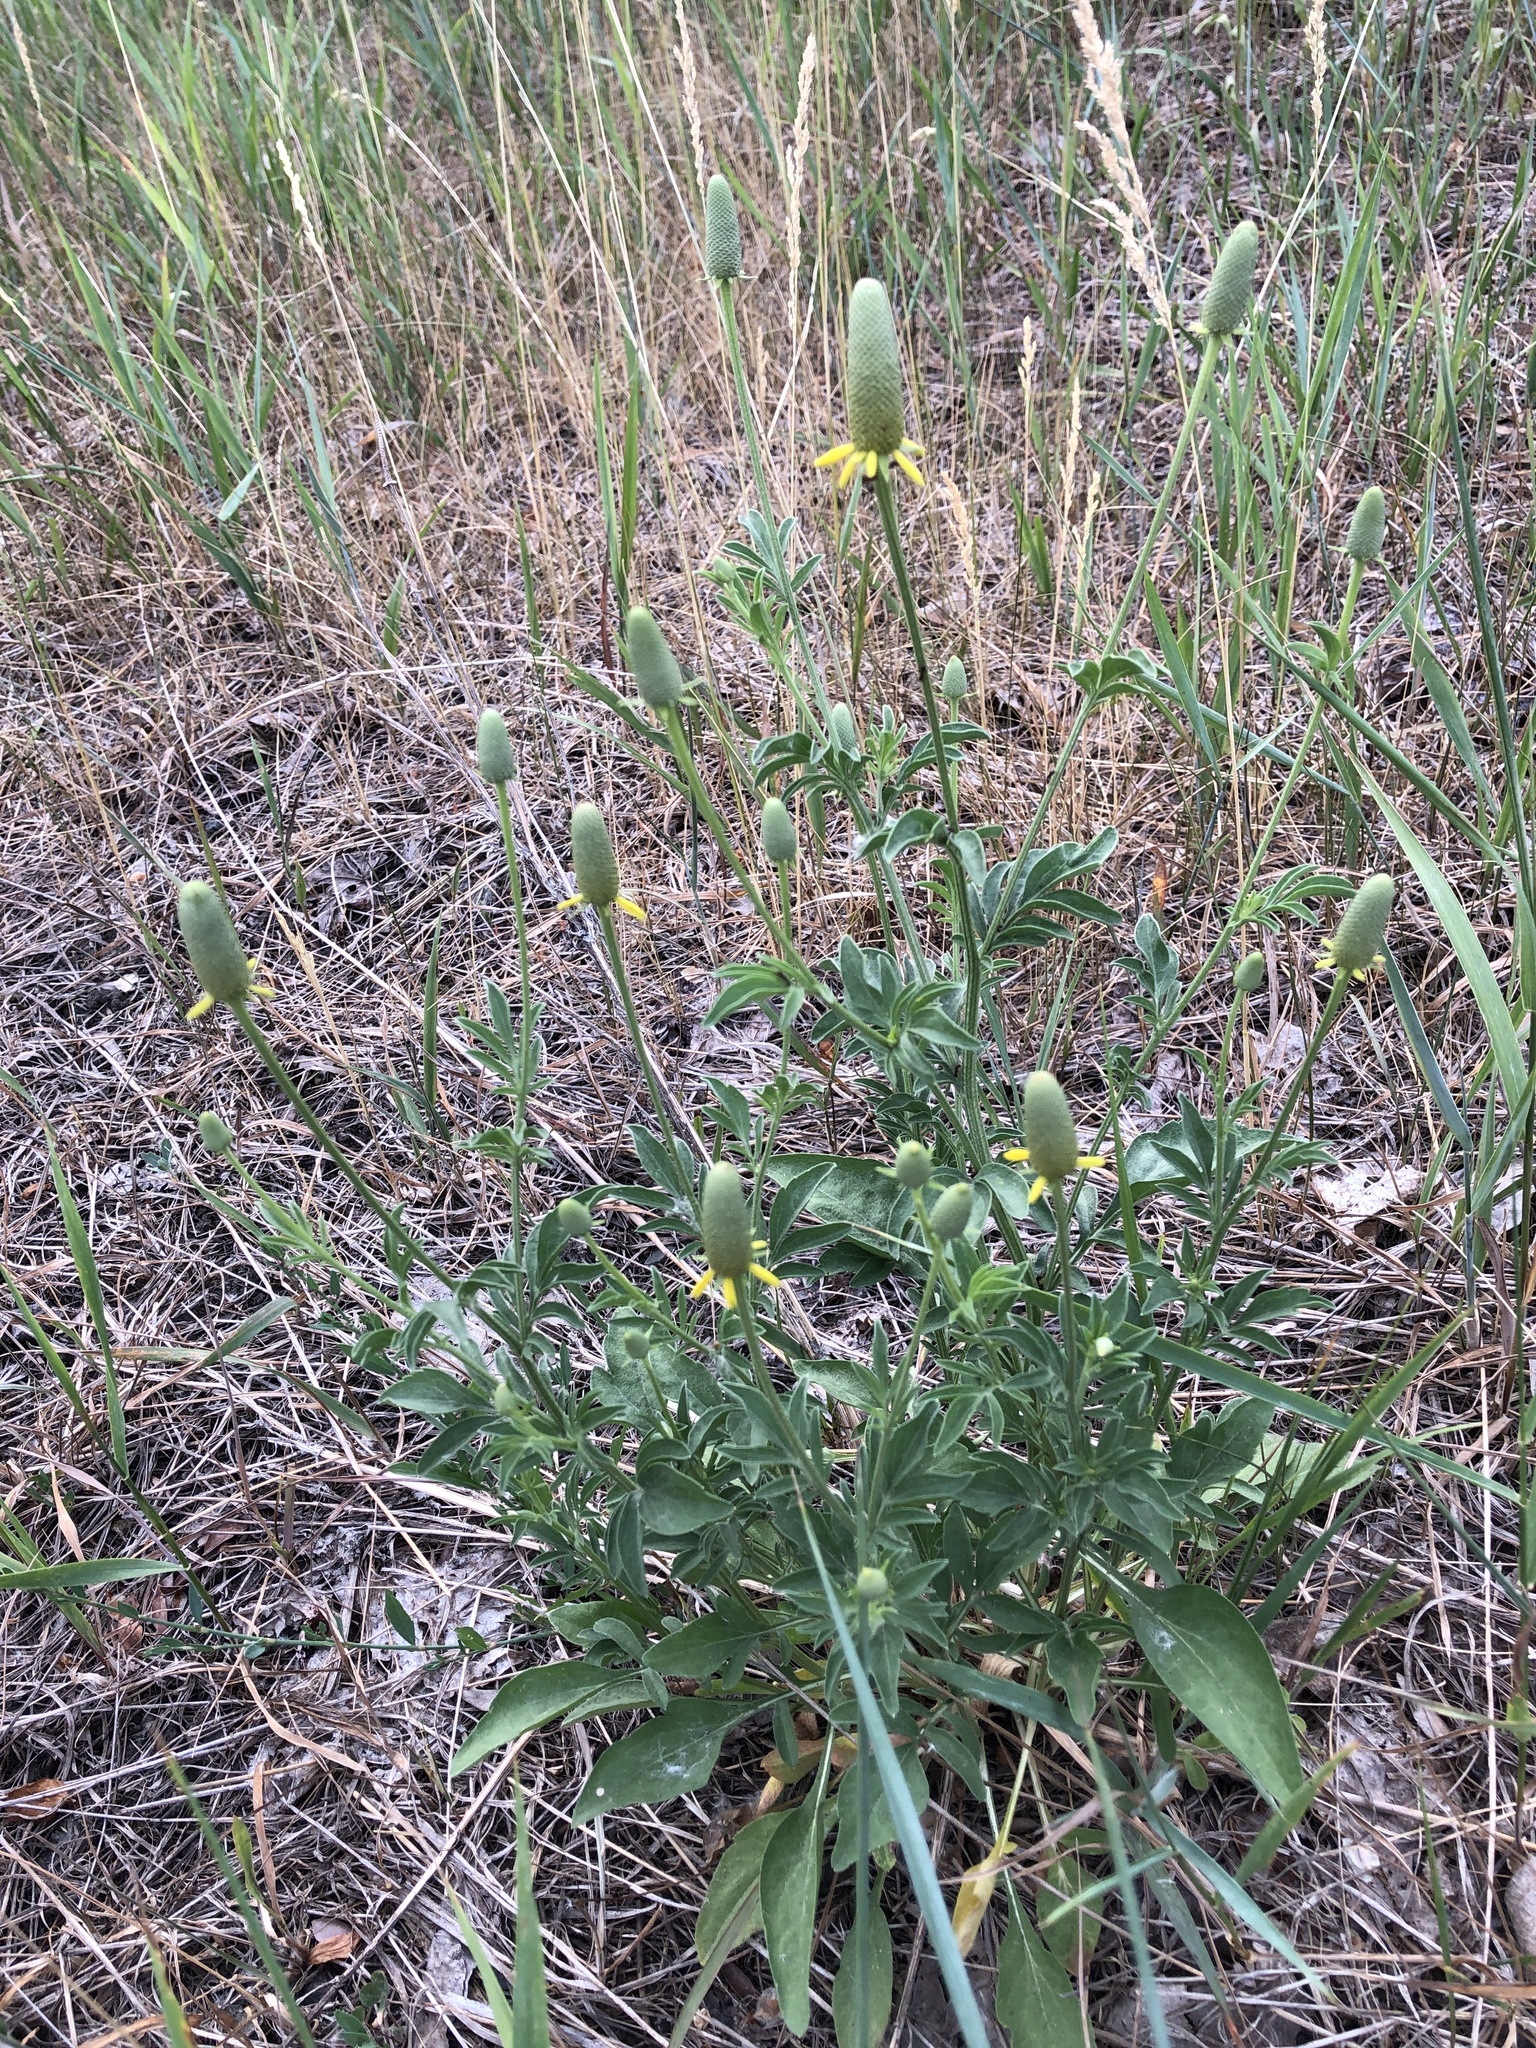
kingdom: Plantae
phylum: Tracheophyta
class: Magnoliopsida
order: Asterales
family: Asteraceae
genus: Ratibida
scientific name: Ratibida columnifera
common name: Prairie coneflower
